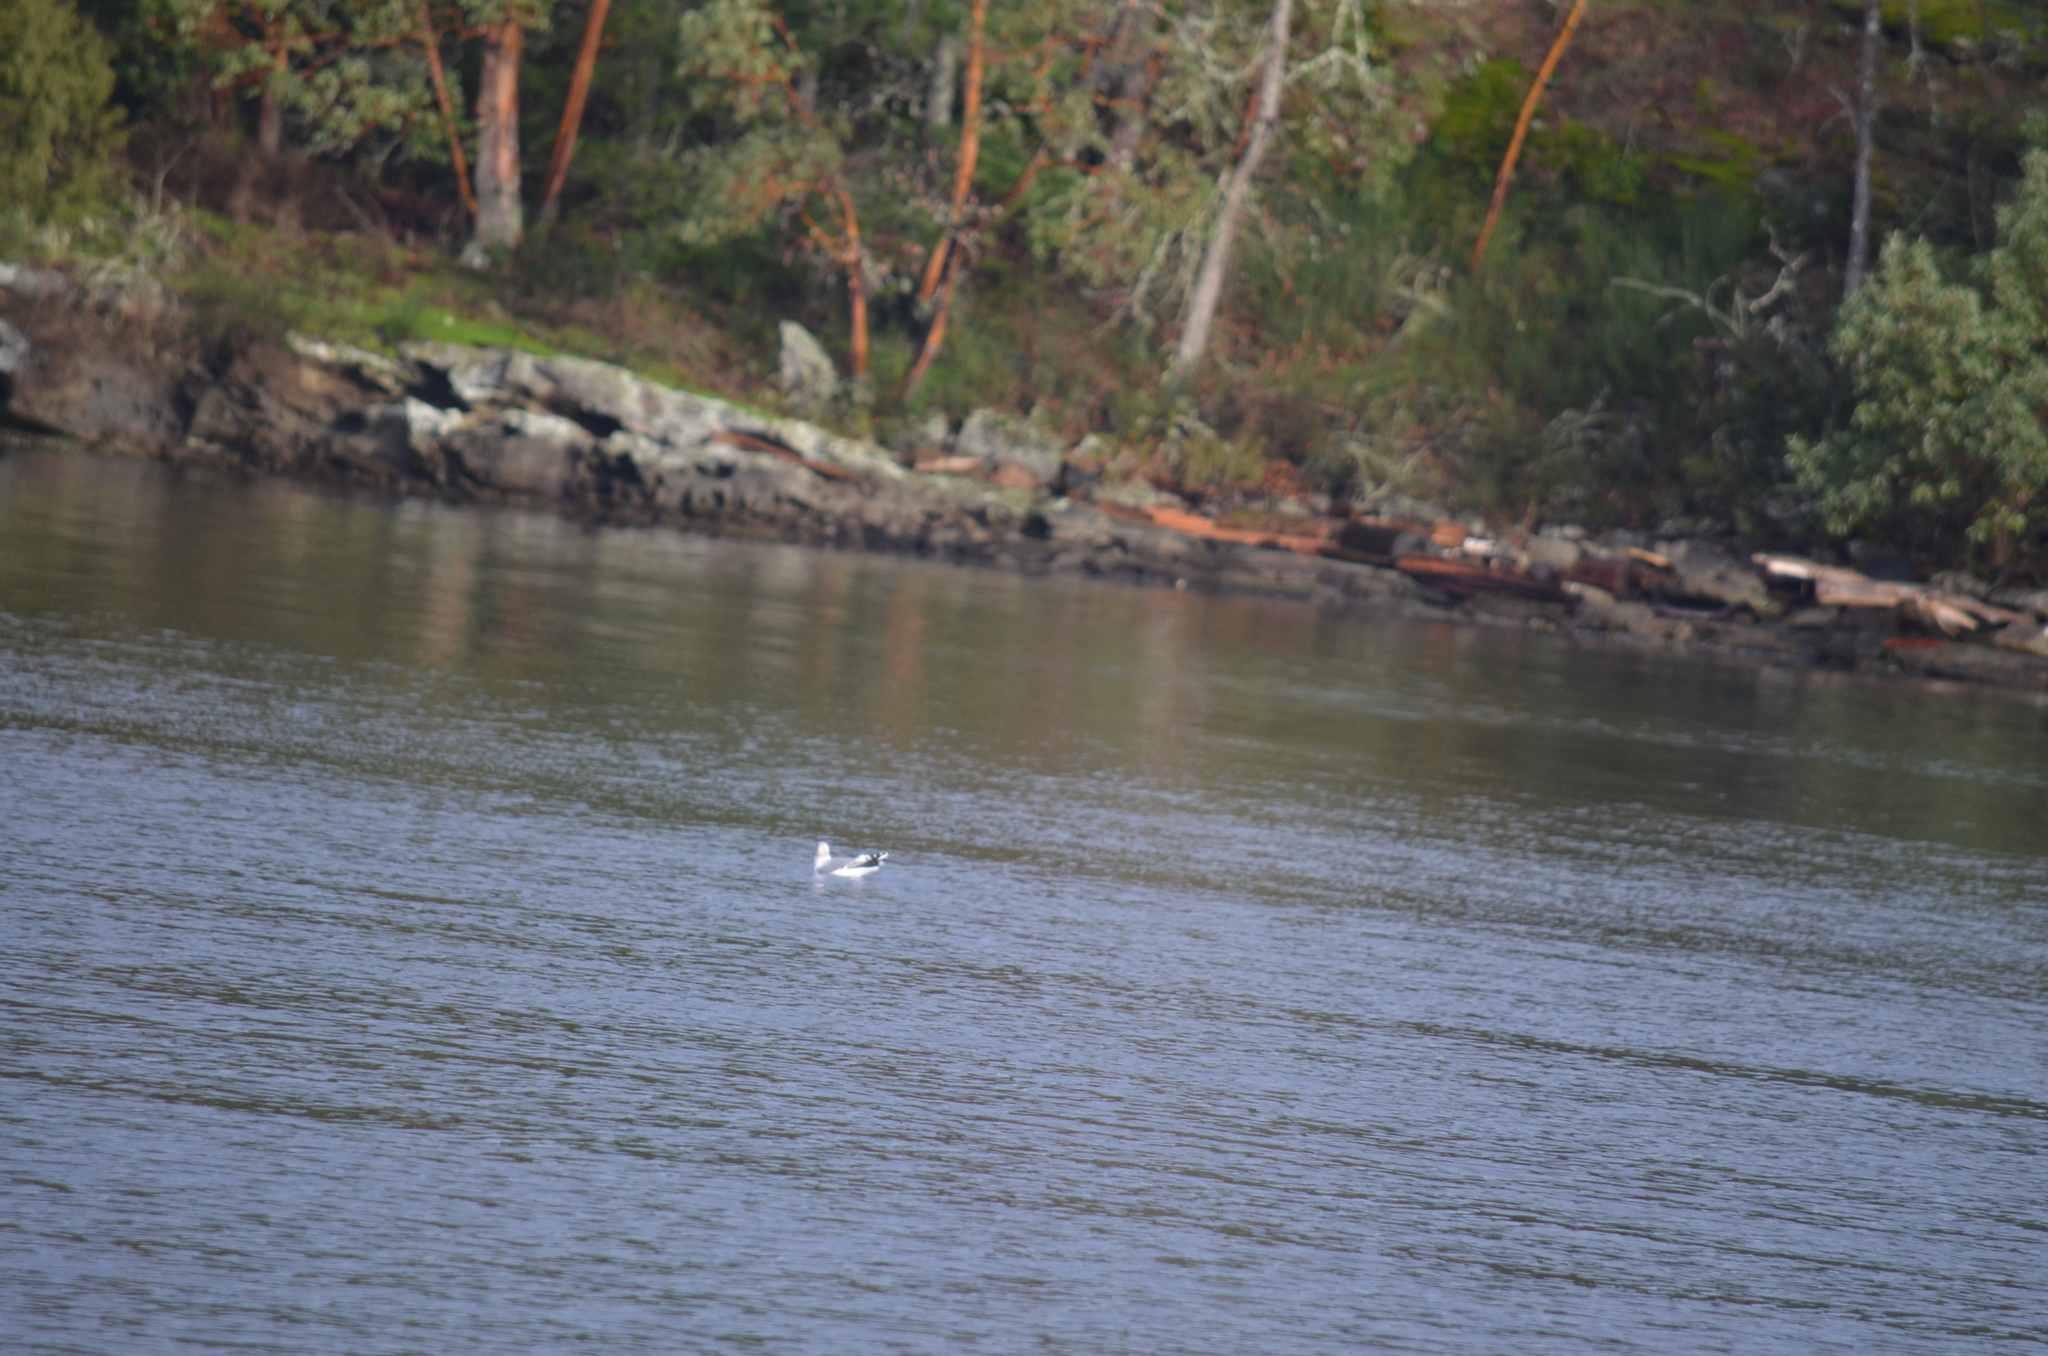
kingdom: Animalia
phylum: Chordata
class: Aves
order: Charadriiformes
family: Laridae
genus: Larus
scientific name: Larus brachyrhynchus
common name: Short-billed gull
